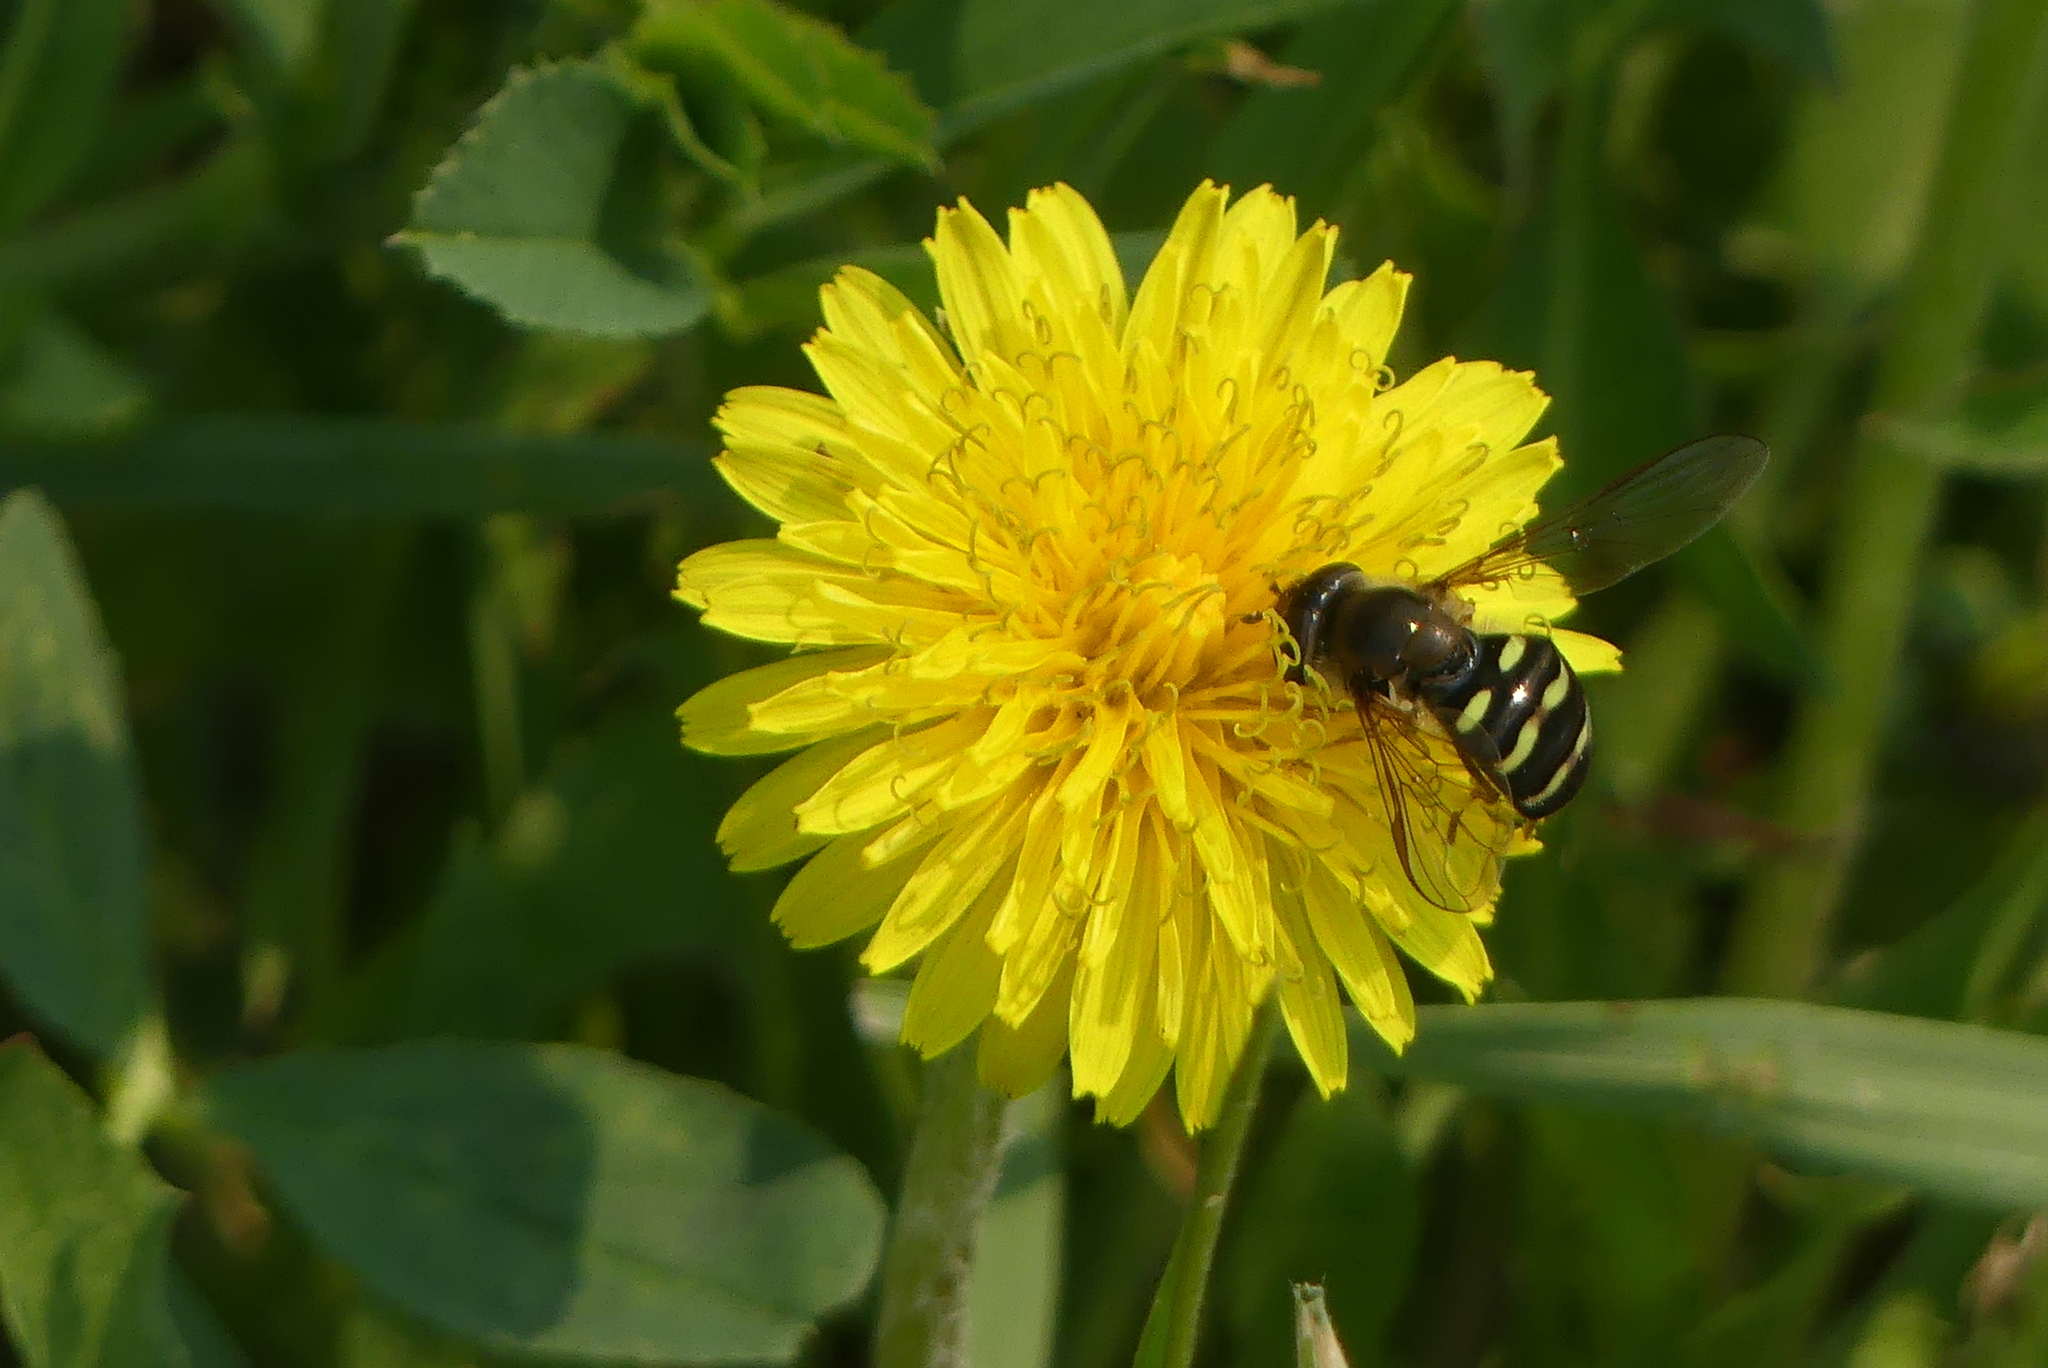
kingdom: Animalia
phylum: Arthropoda
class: Insecta
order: Diptera
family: Syrphidae
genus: Lapposyrphus
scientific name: Lapposyrphus aberrantis
